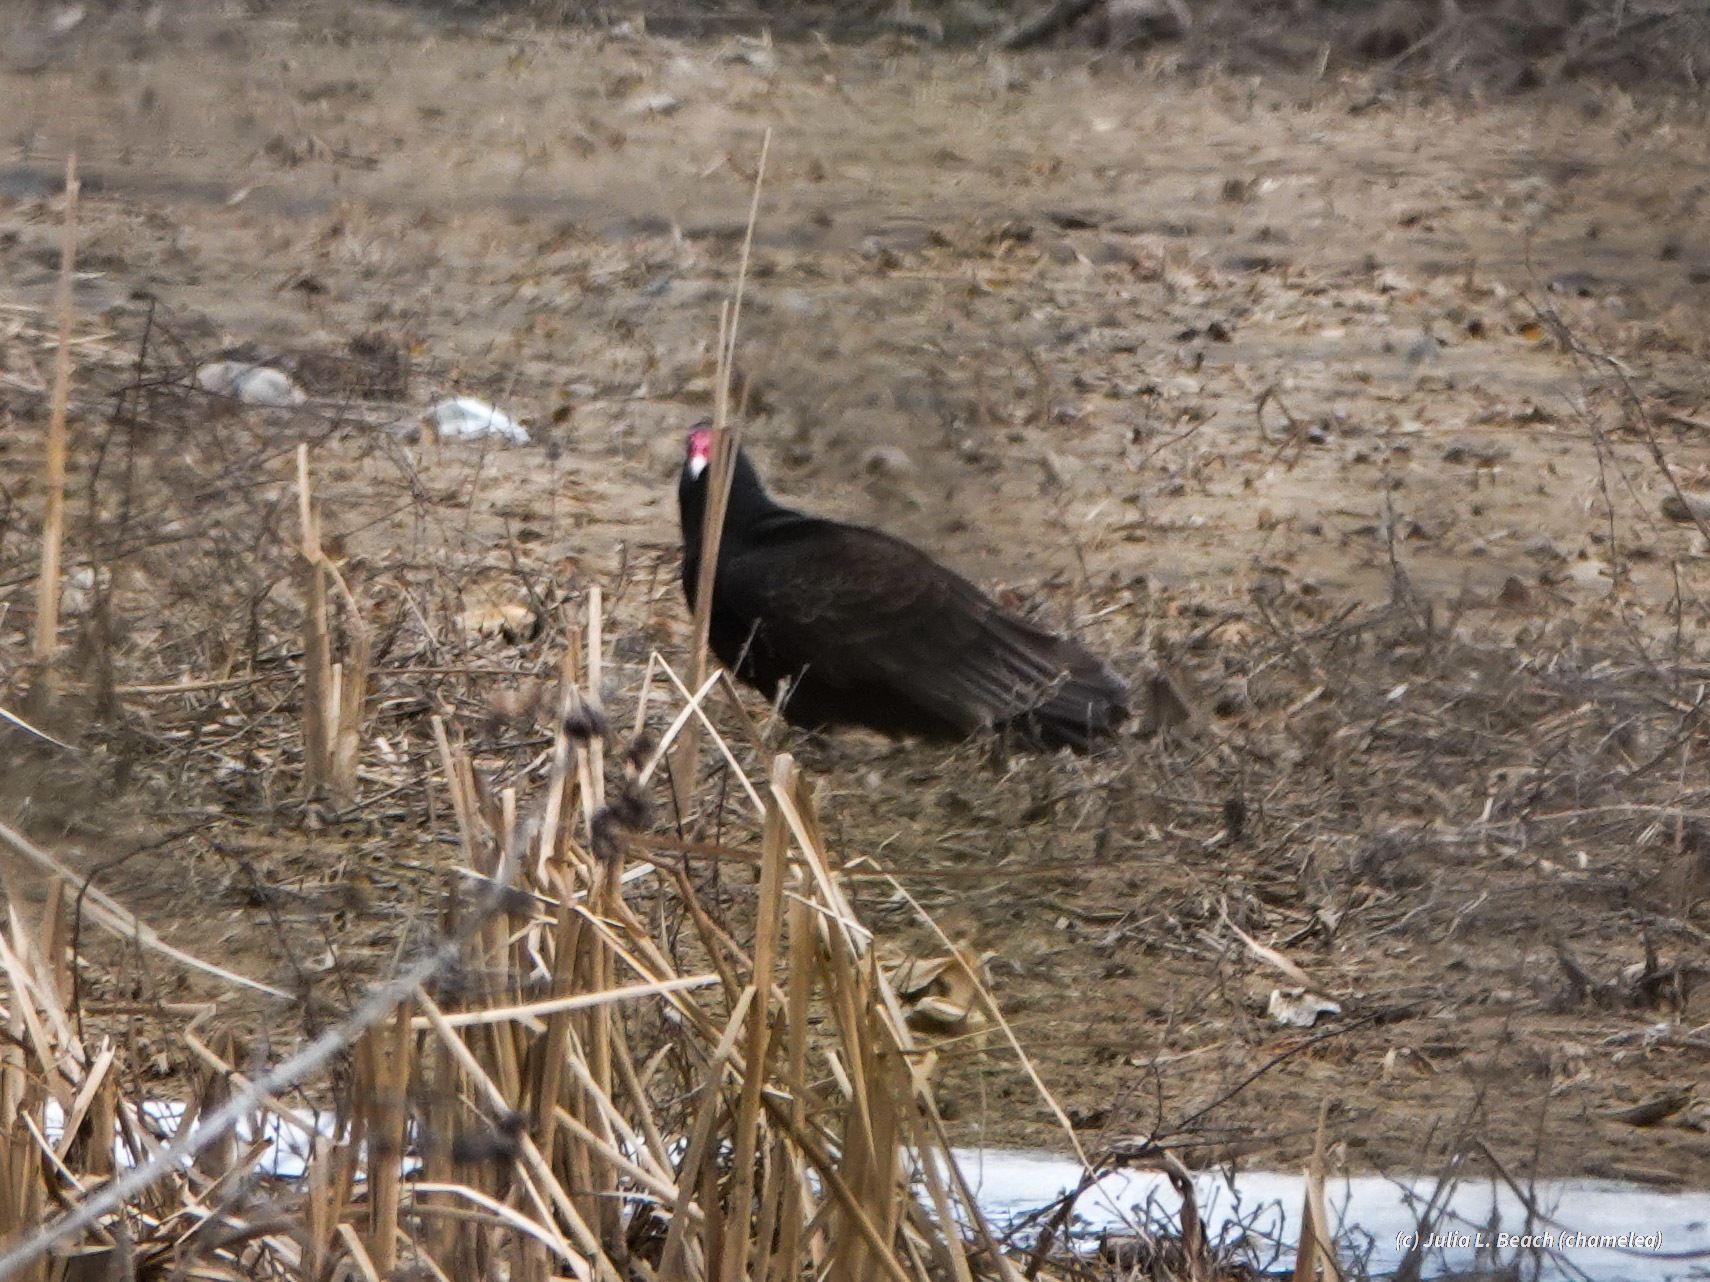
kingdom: Animalia
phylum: Chordata
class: Aves
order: Accipitriformes
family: Cathartidae
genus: Cathartes
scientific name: Cathartes aura
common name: Turkey vulture
